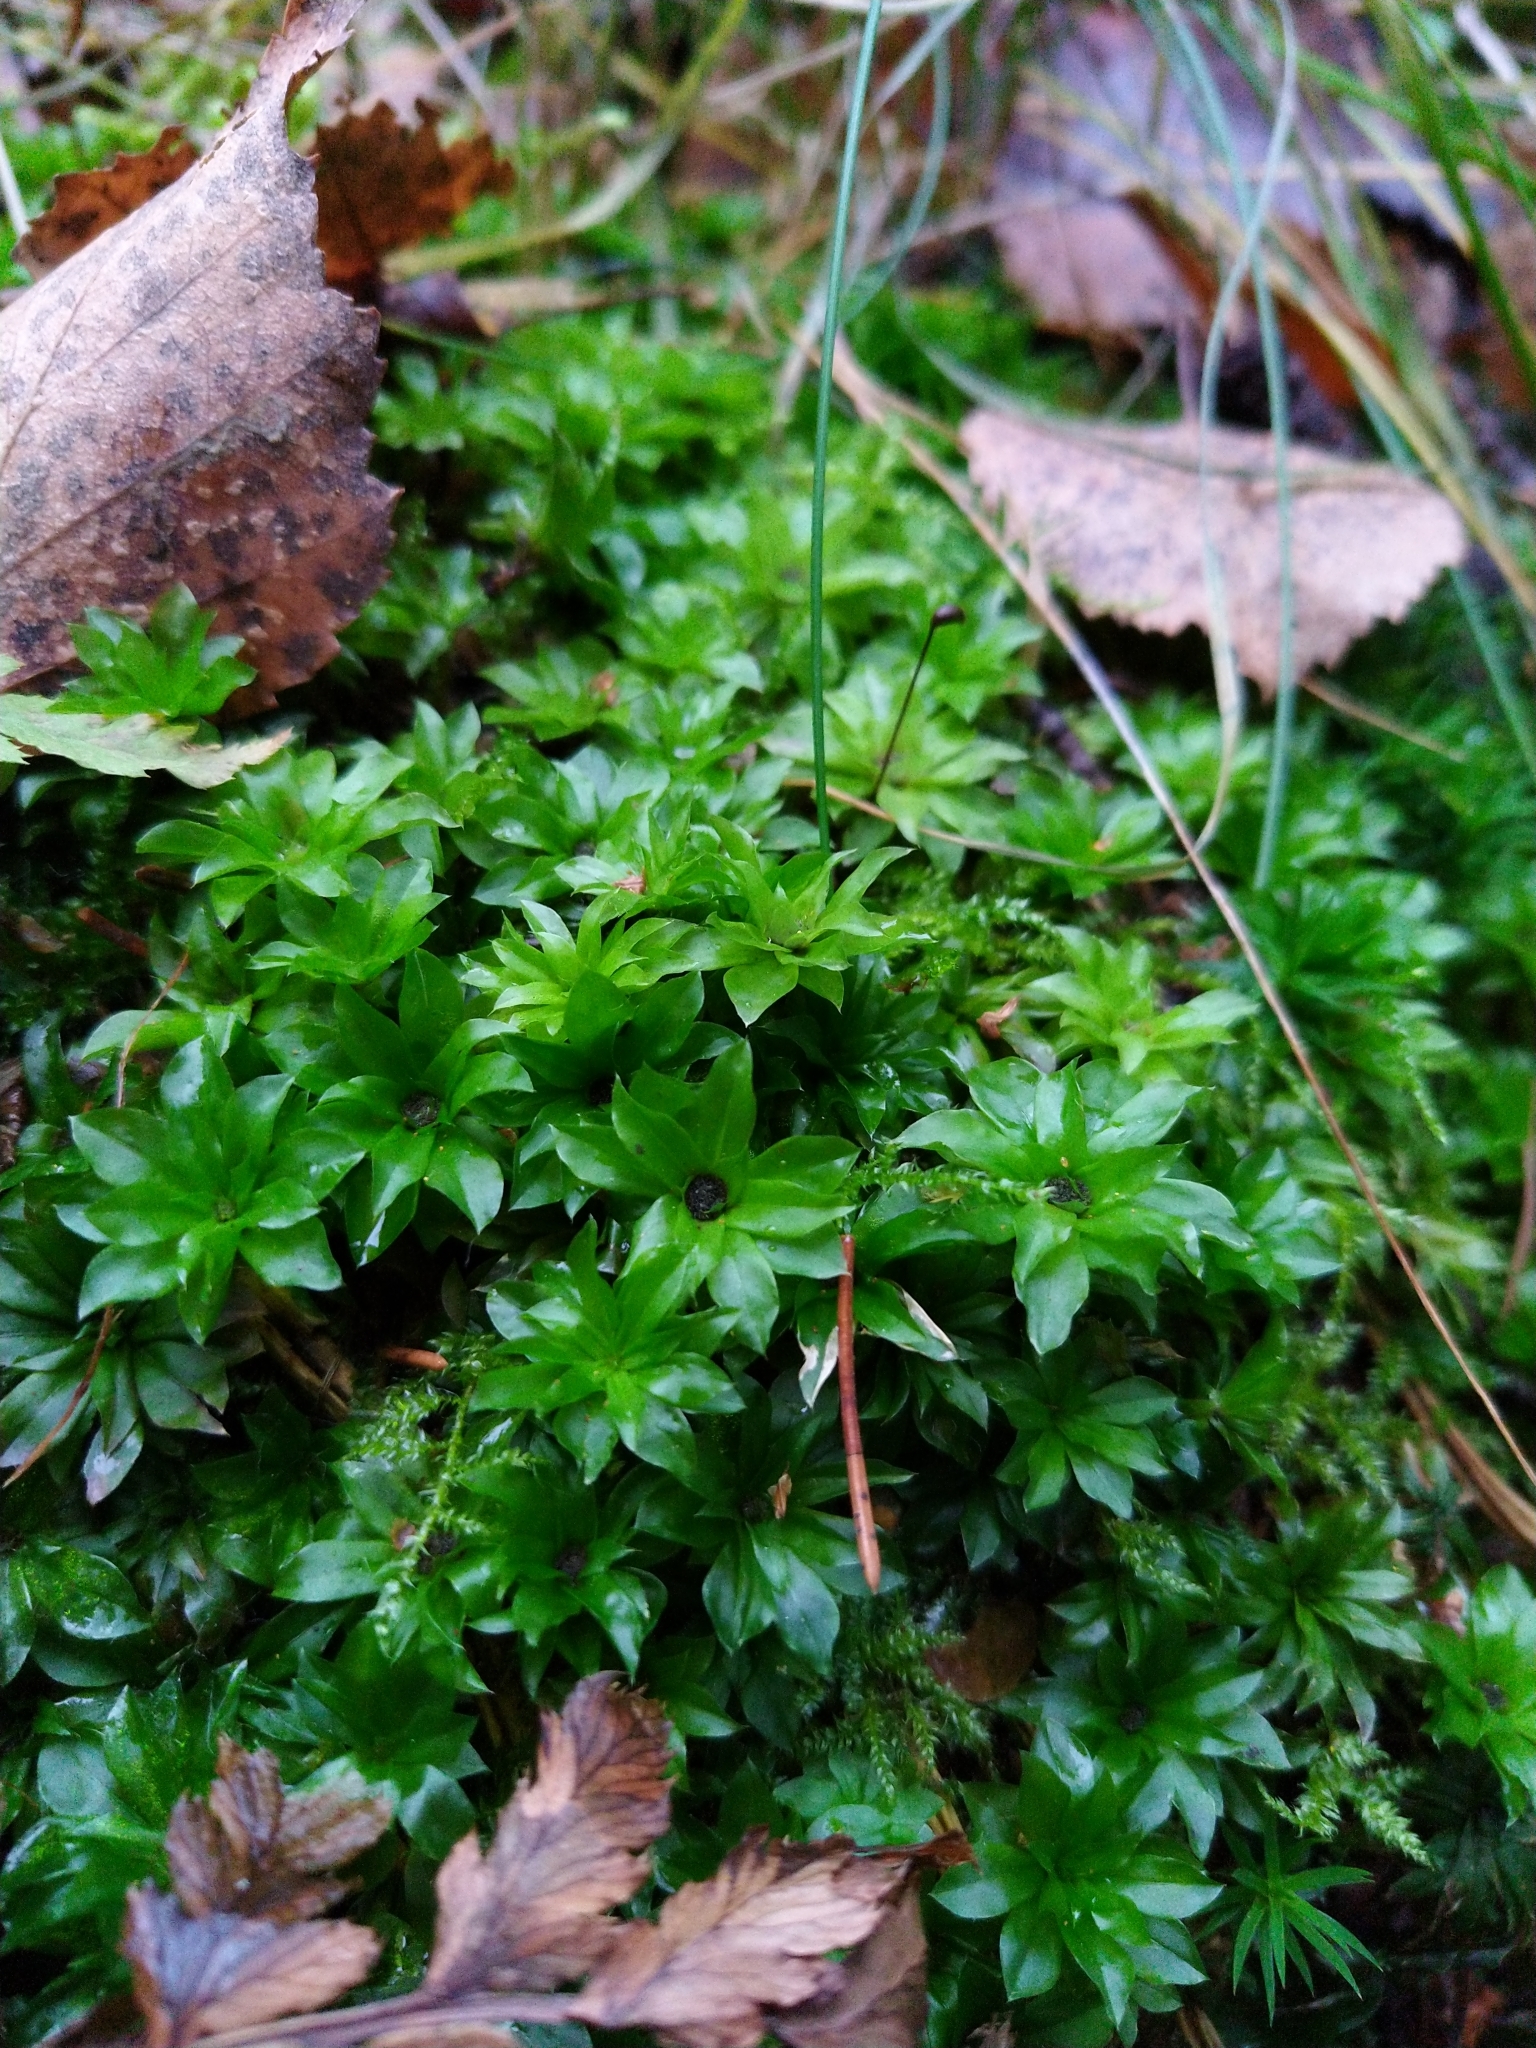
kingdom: Plantae
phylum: Bryophyta
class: Bryopsida
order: Bryales
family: Bryaceae
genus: Rhodobryum
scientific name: Rhodobryum roseum
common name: Rose-moss
